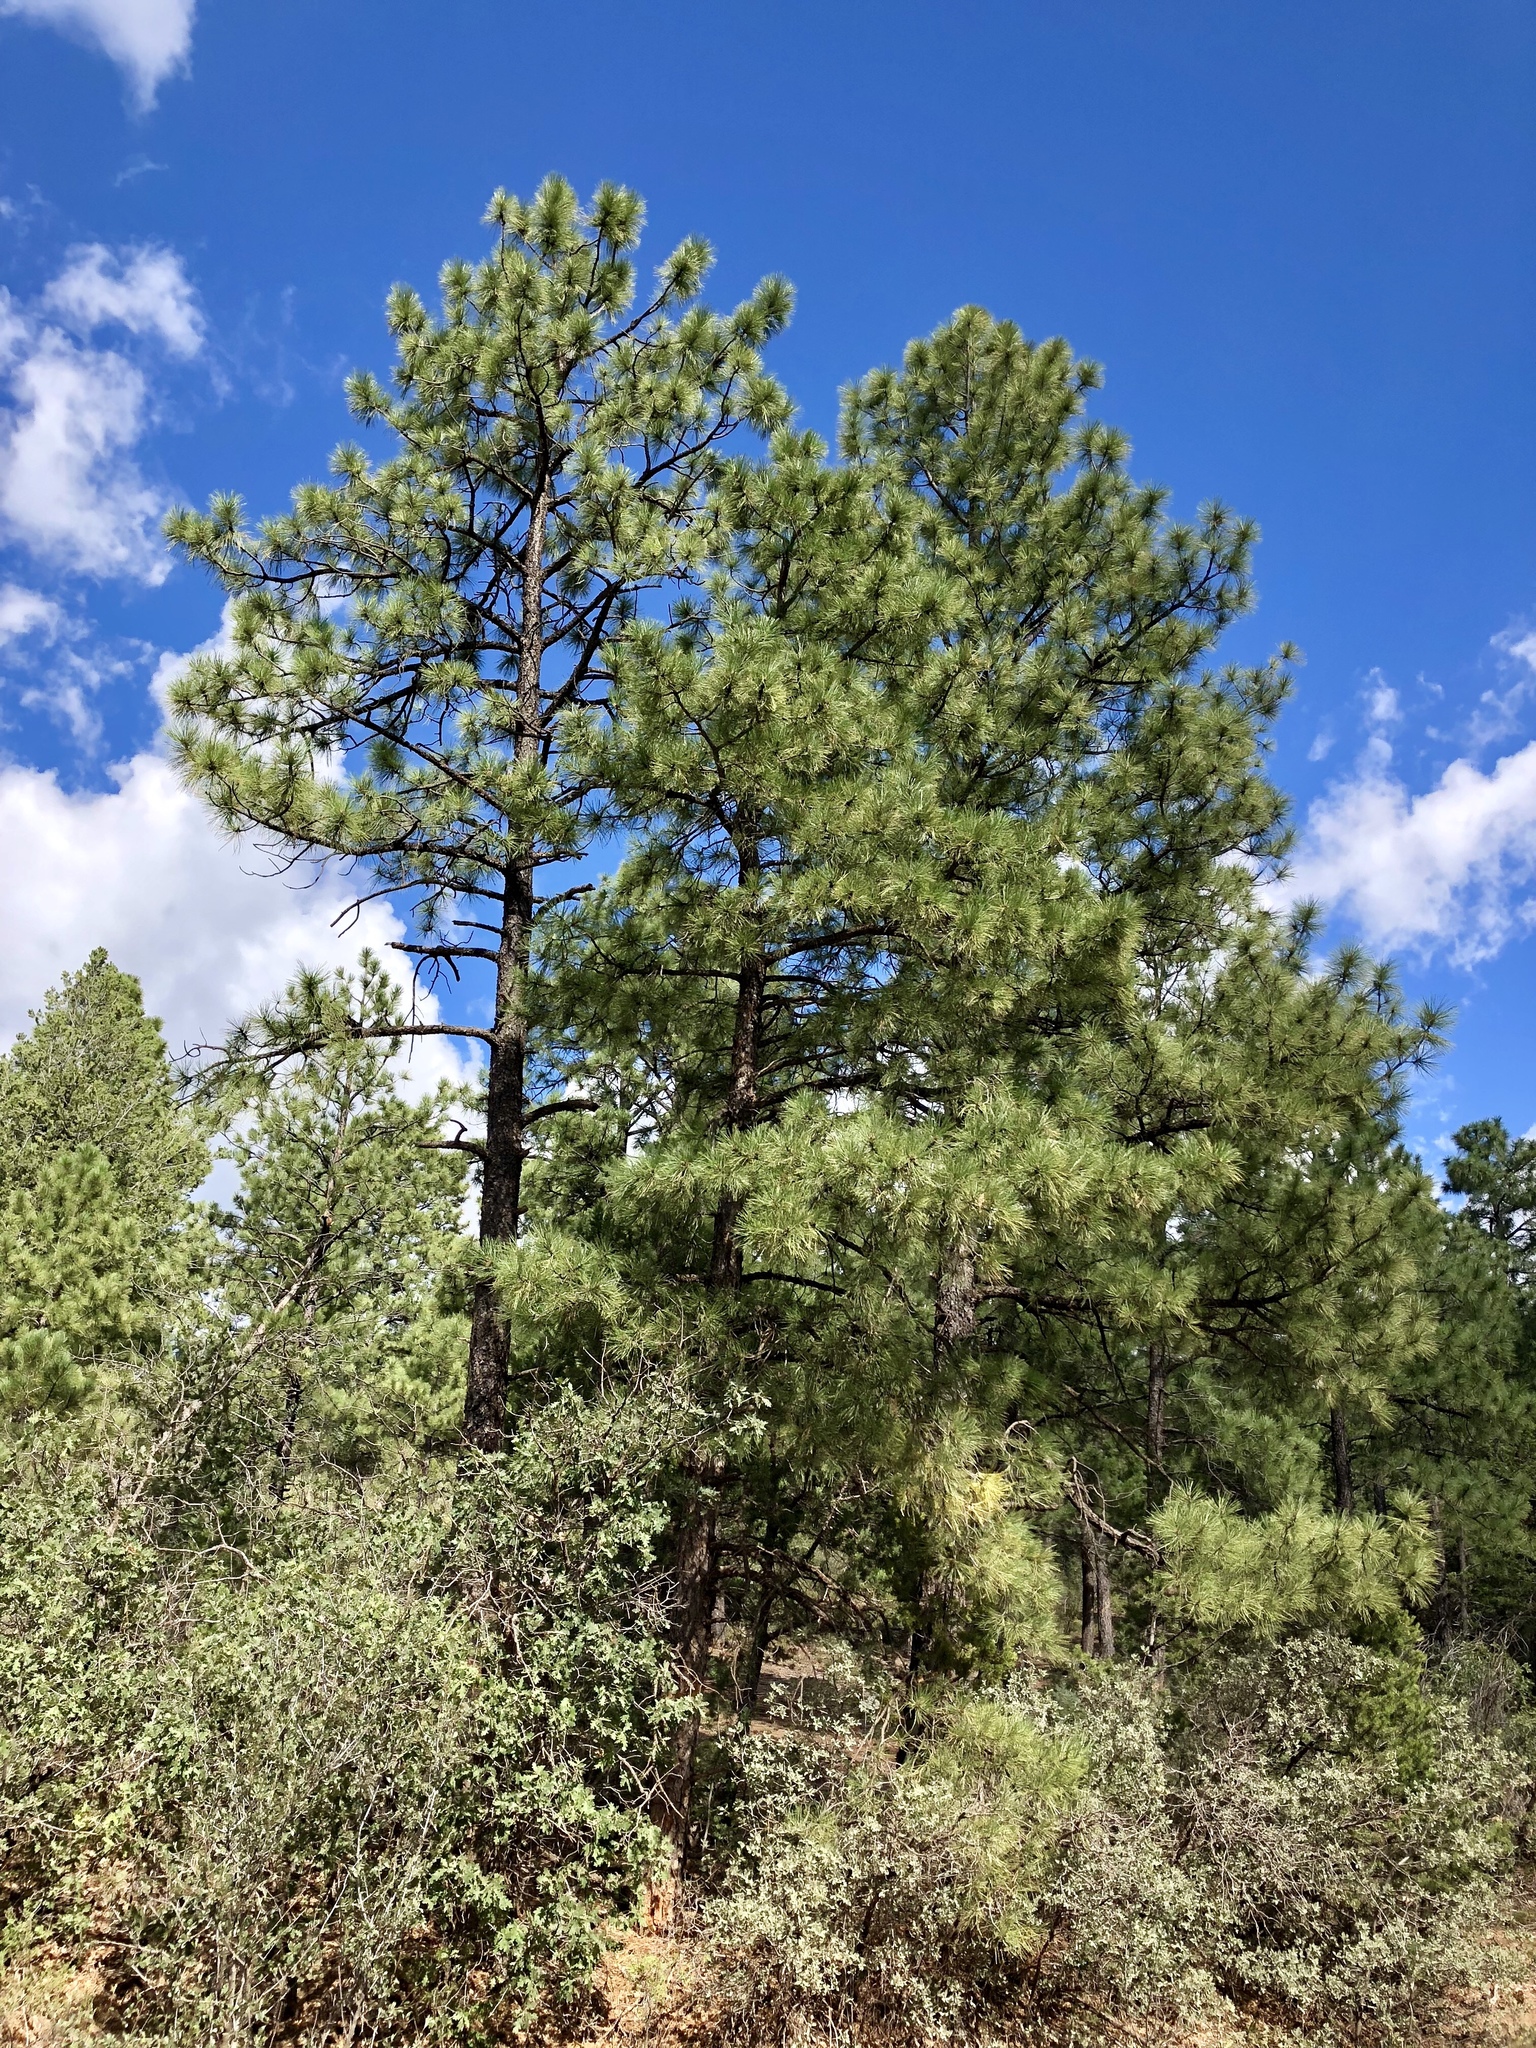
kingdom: Plantae
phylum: Tracheophyta
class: Pinopsida
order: Pinales
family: Pinaceae
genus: Pinus
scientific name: Pinus ponderosa
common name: Western yellow-pine
